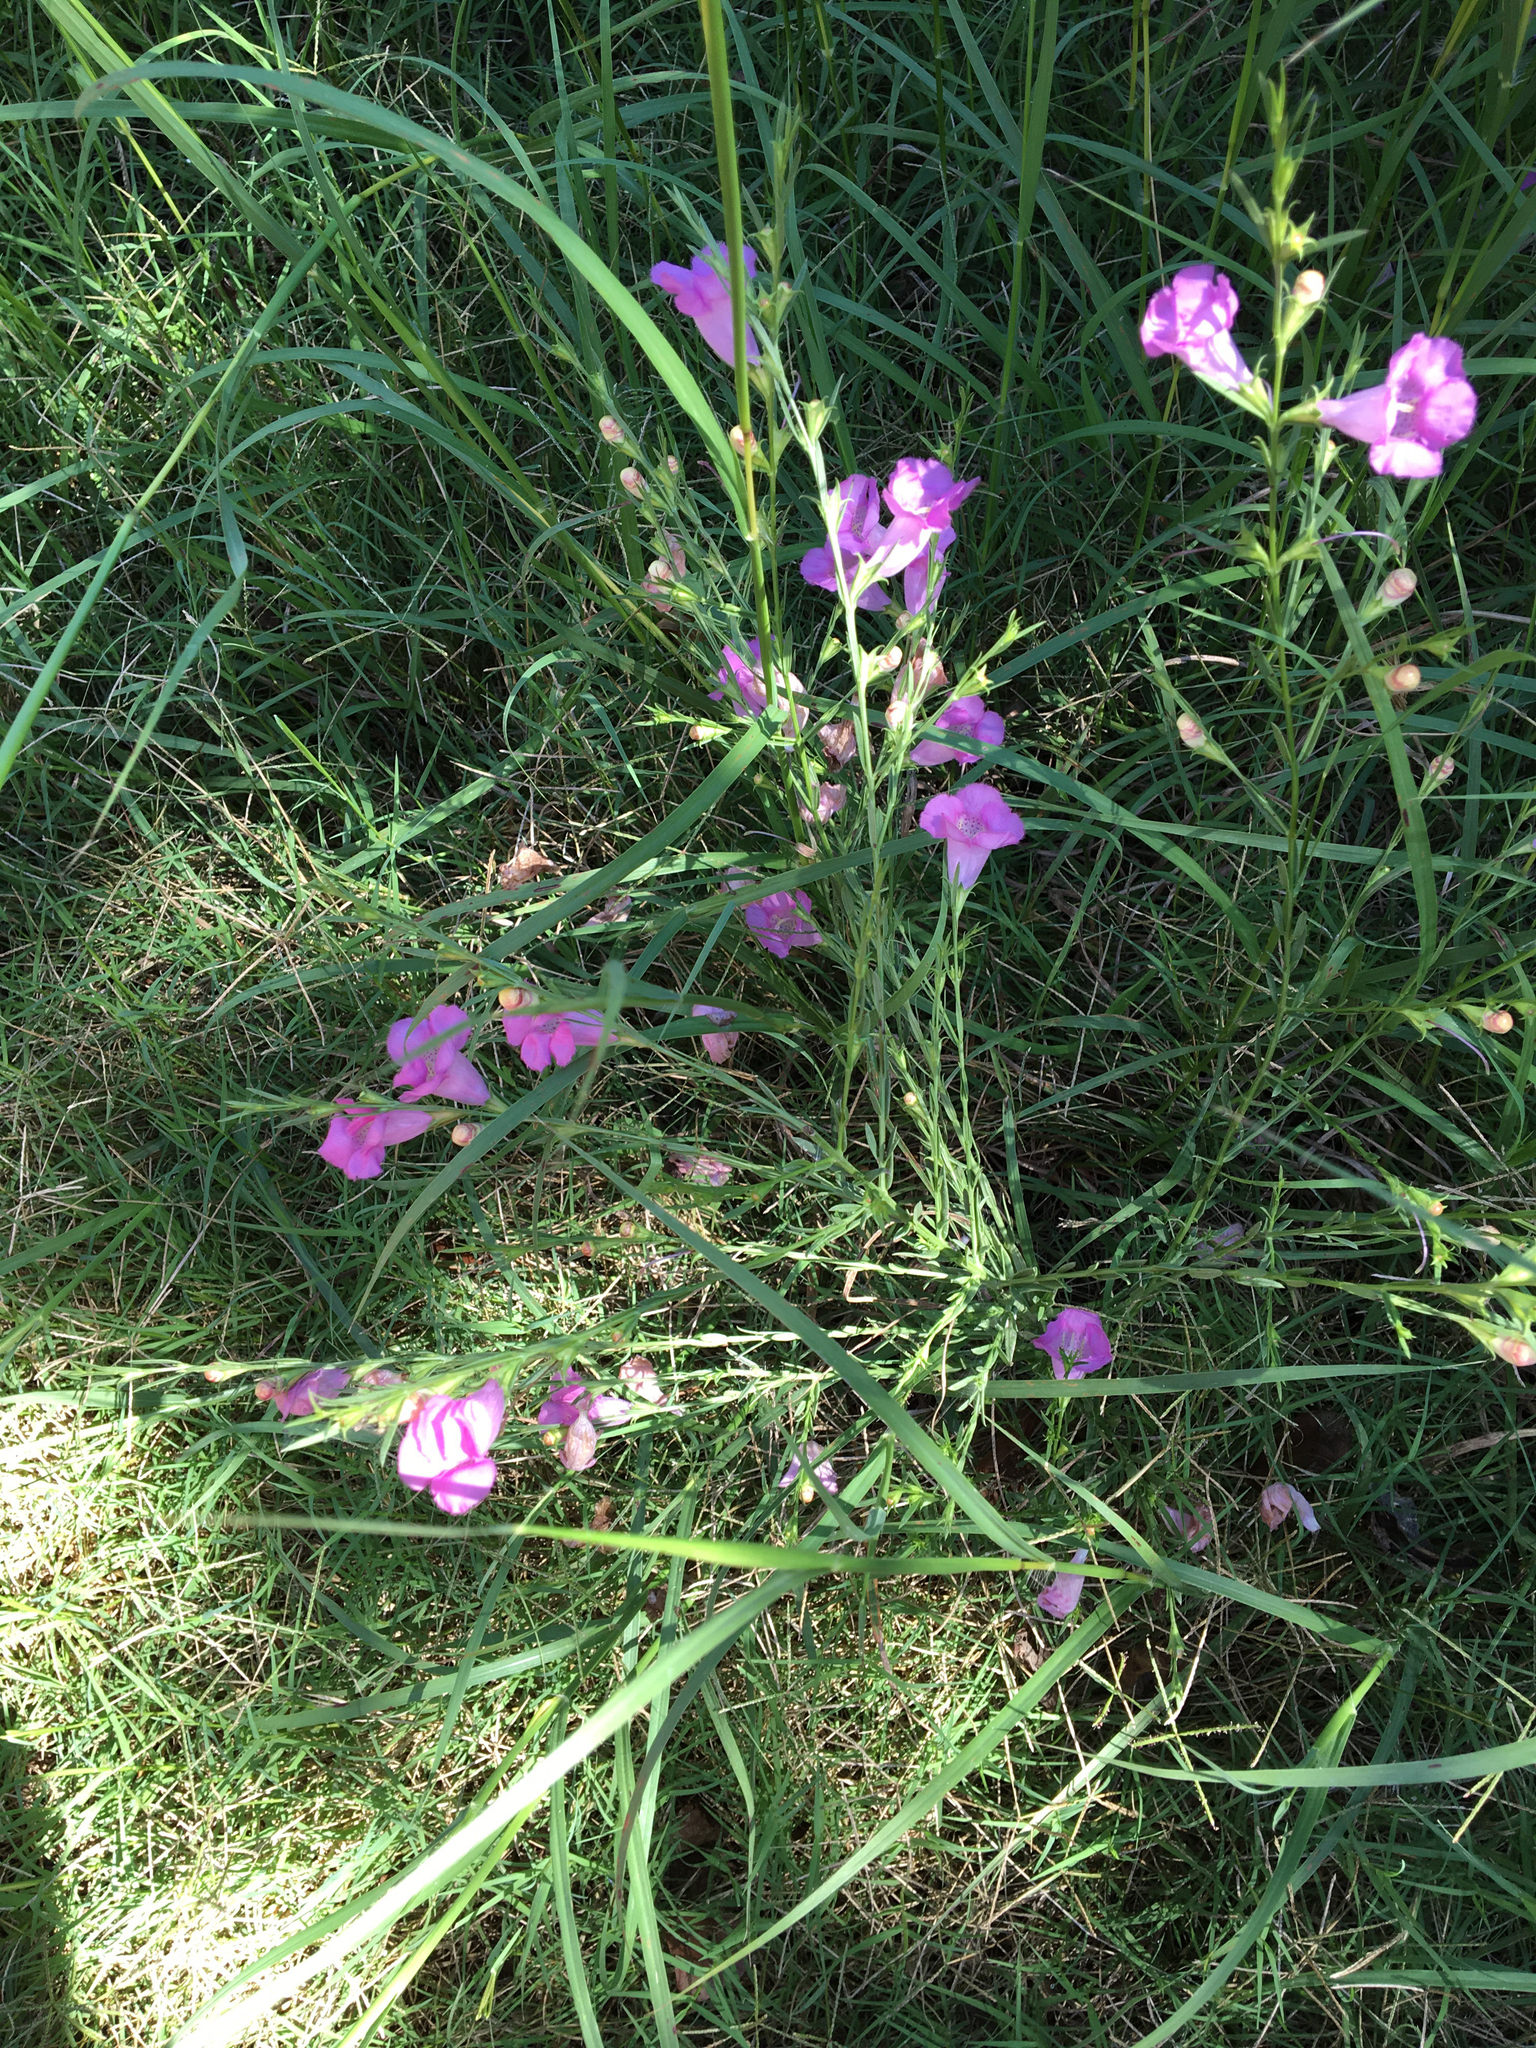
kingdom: Plantae
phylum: Tracheophyta
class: Magnoliopsida
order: Lamiales
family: Orobanchaceae
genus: Agalinis
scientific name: Agalinis heterophylla
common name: Prairie agalinis
